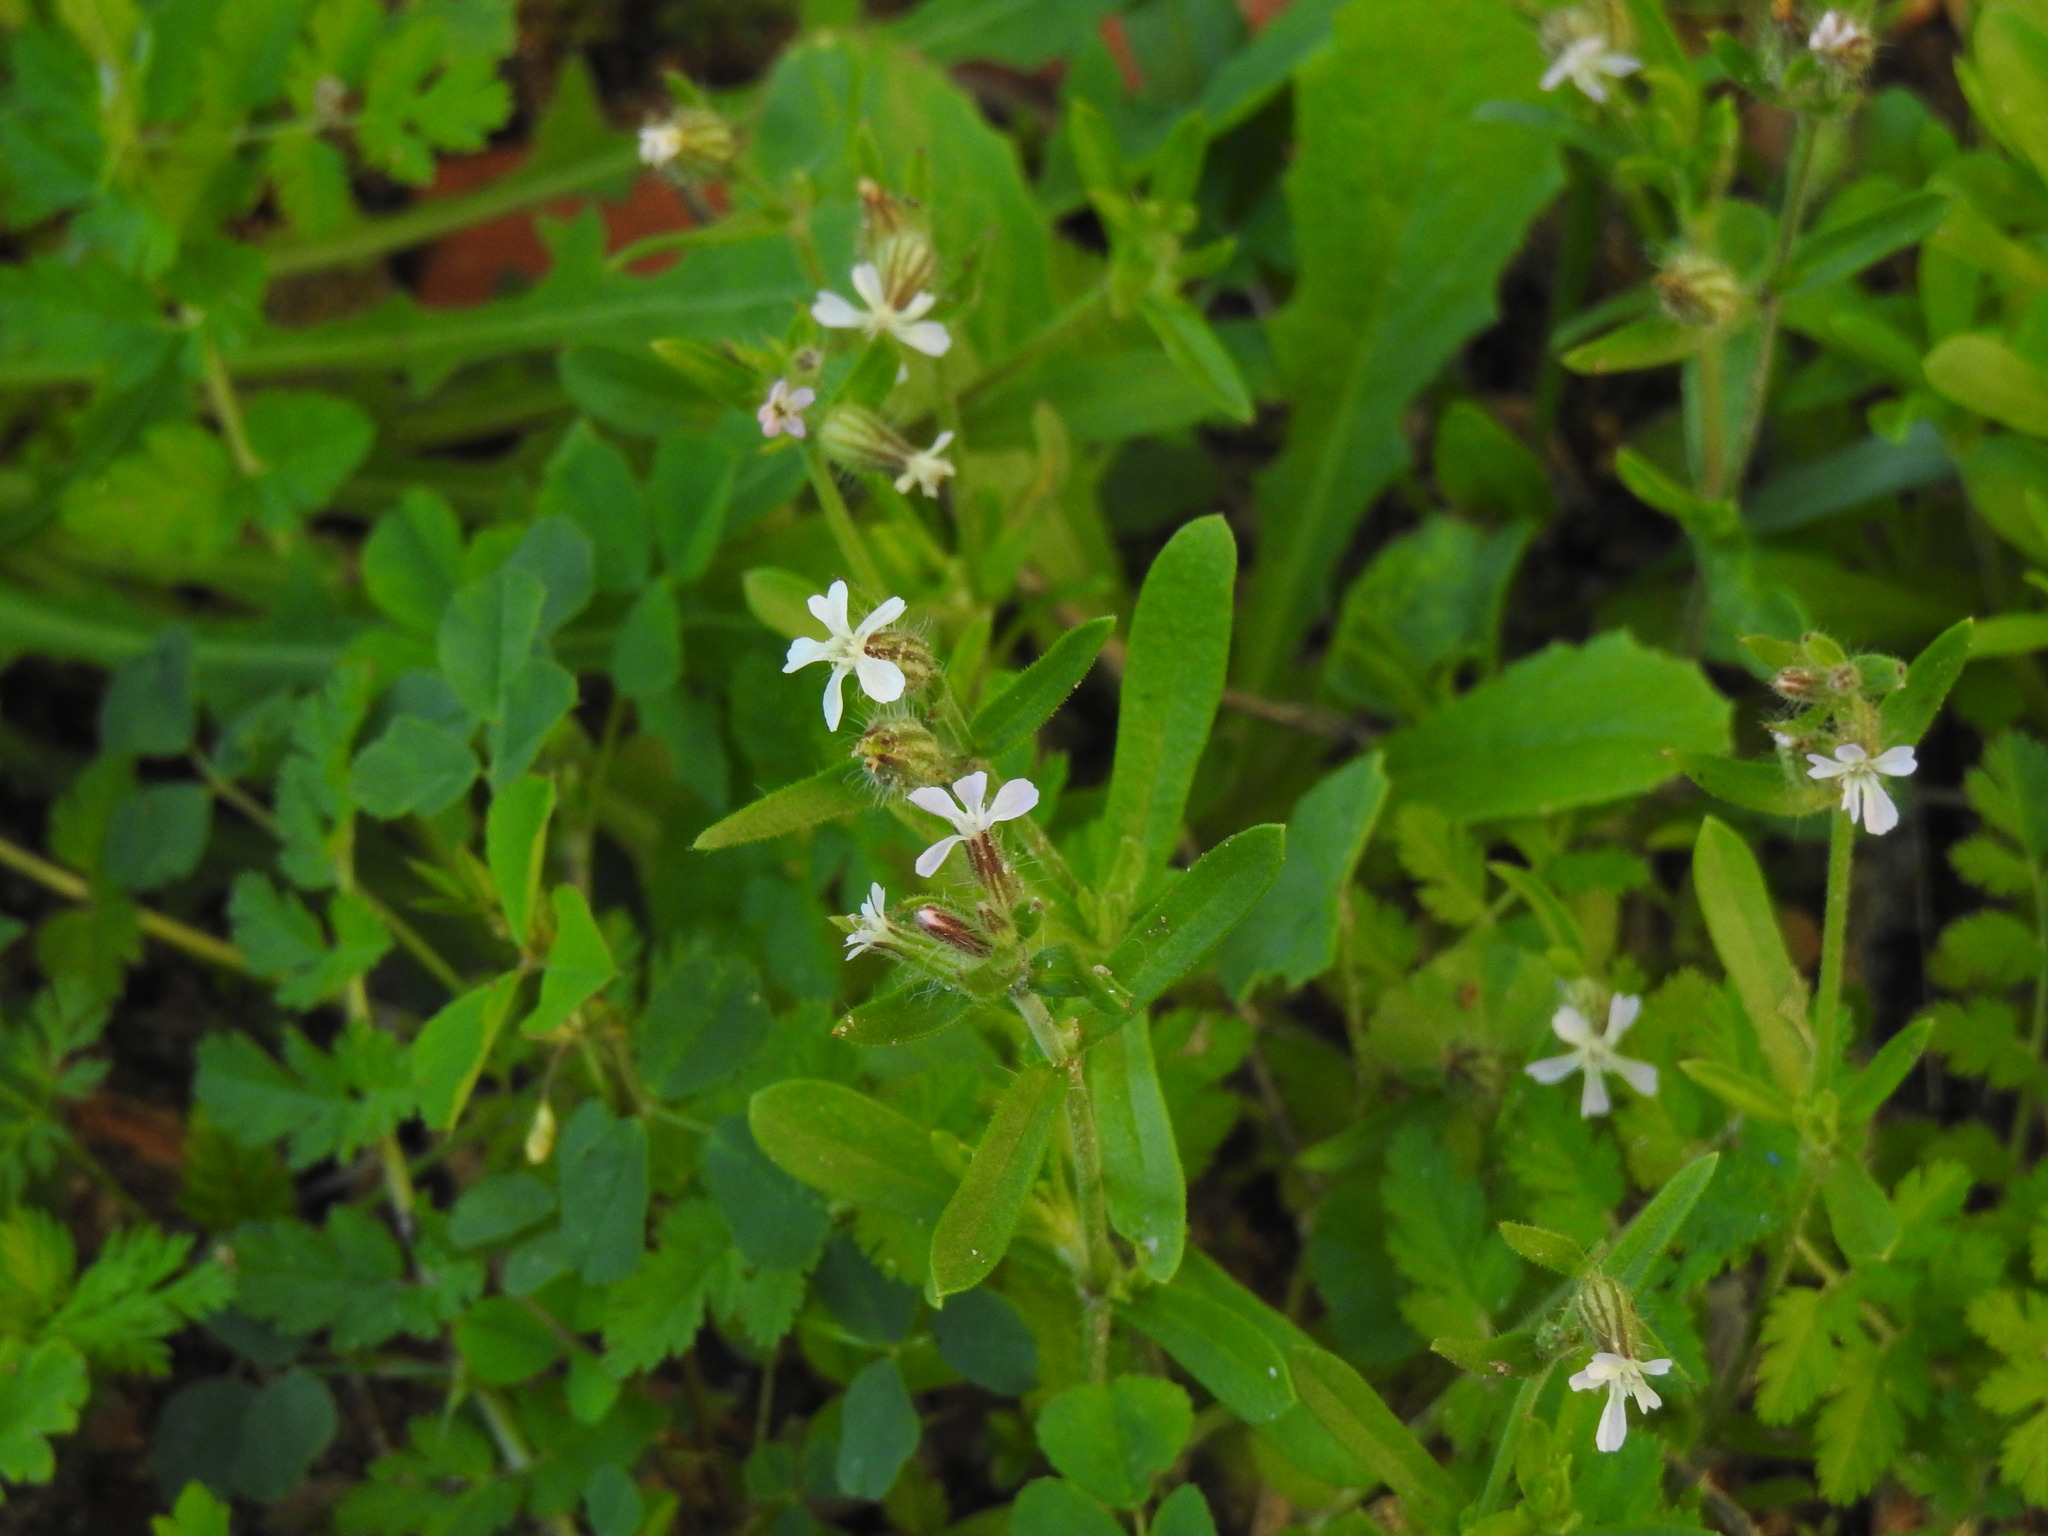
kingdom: Plantae
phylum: Tracheophyta
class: Magnoliopsida
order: Caryophyllales
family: Caryophyllaceae
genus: Silene
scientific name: Silene gallica
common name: Small-flowered catchfly
